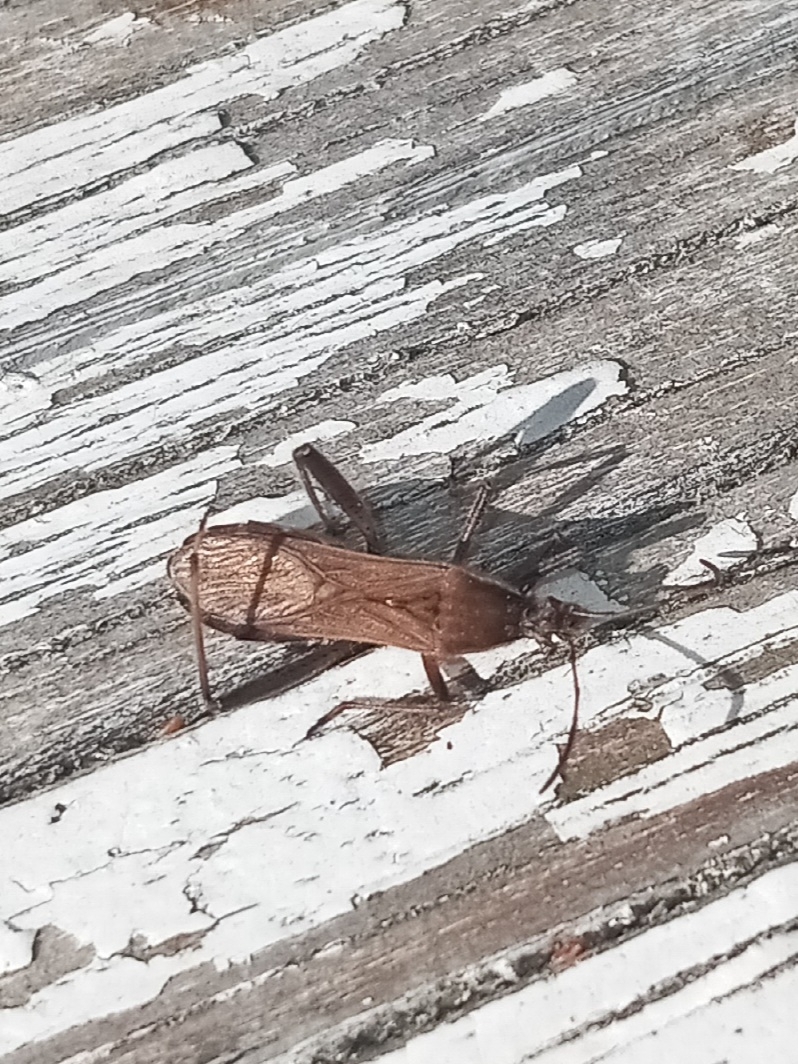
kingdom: Animalia
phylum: Arthropoda
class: Insecta
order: Hemiptera
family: Alydidae
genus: Alydus
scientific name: Alydus pilosulus
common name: Broad-headed bug
